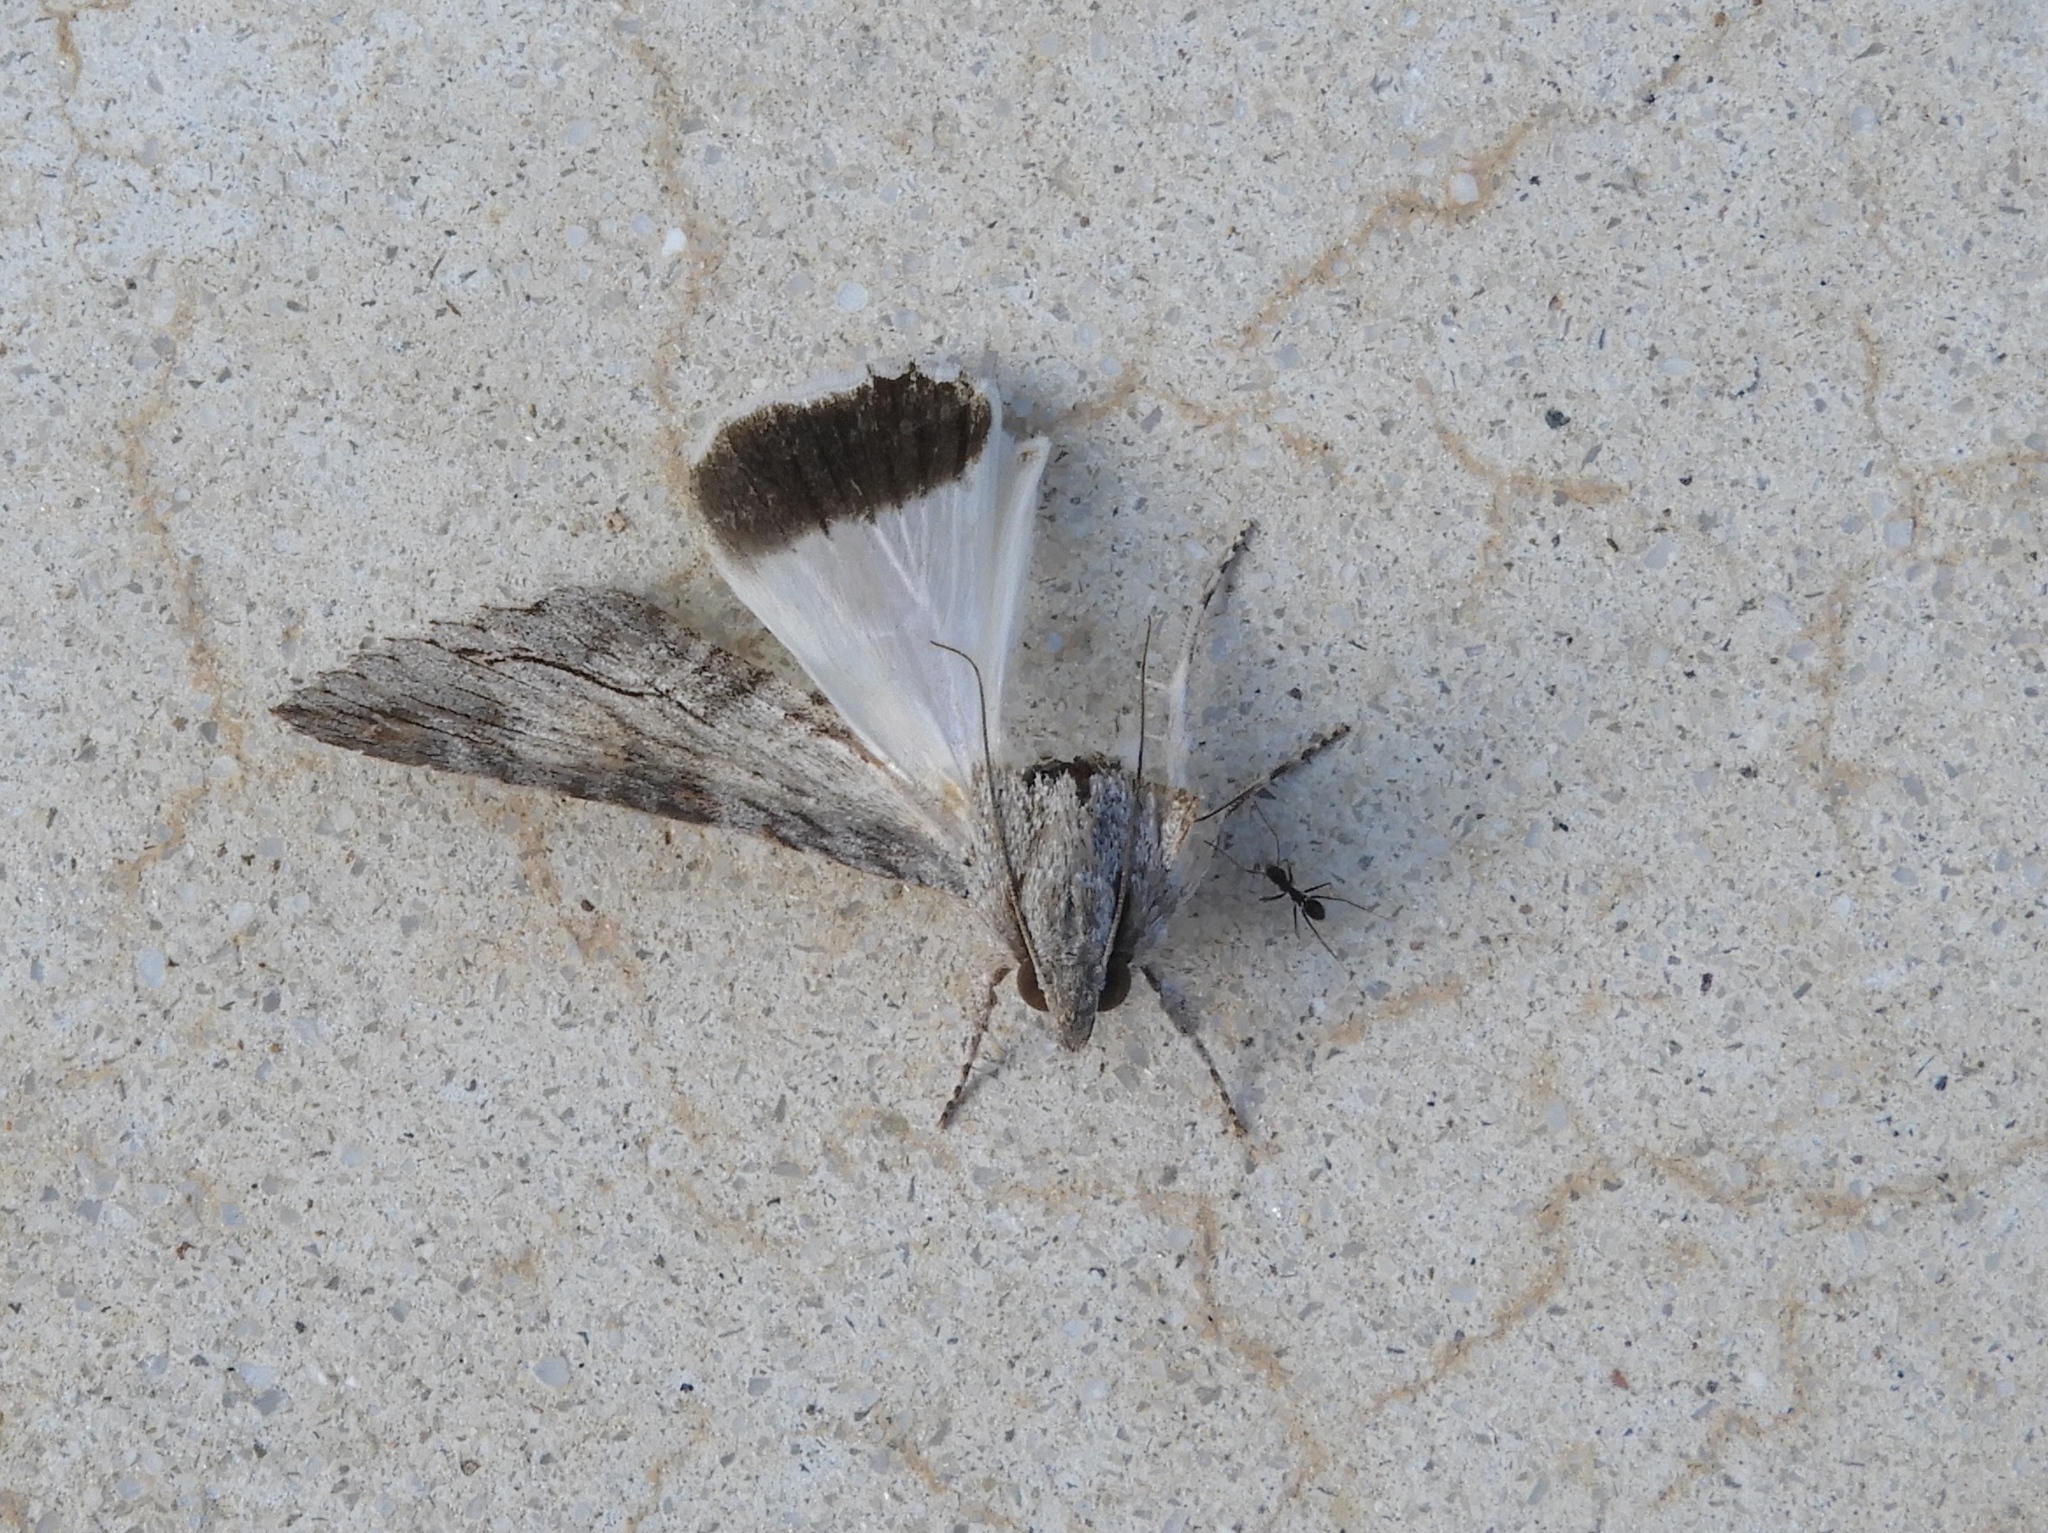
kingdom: Animalia
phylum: Arthropoda
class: Insecta
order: Lepidoptera
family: Erebidae
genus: Melipotis
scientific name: Melipotis acontioides
